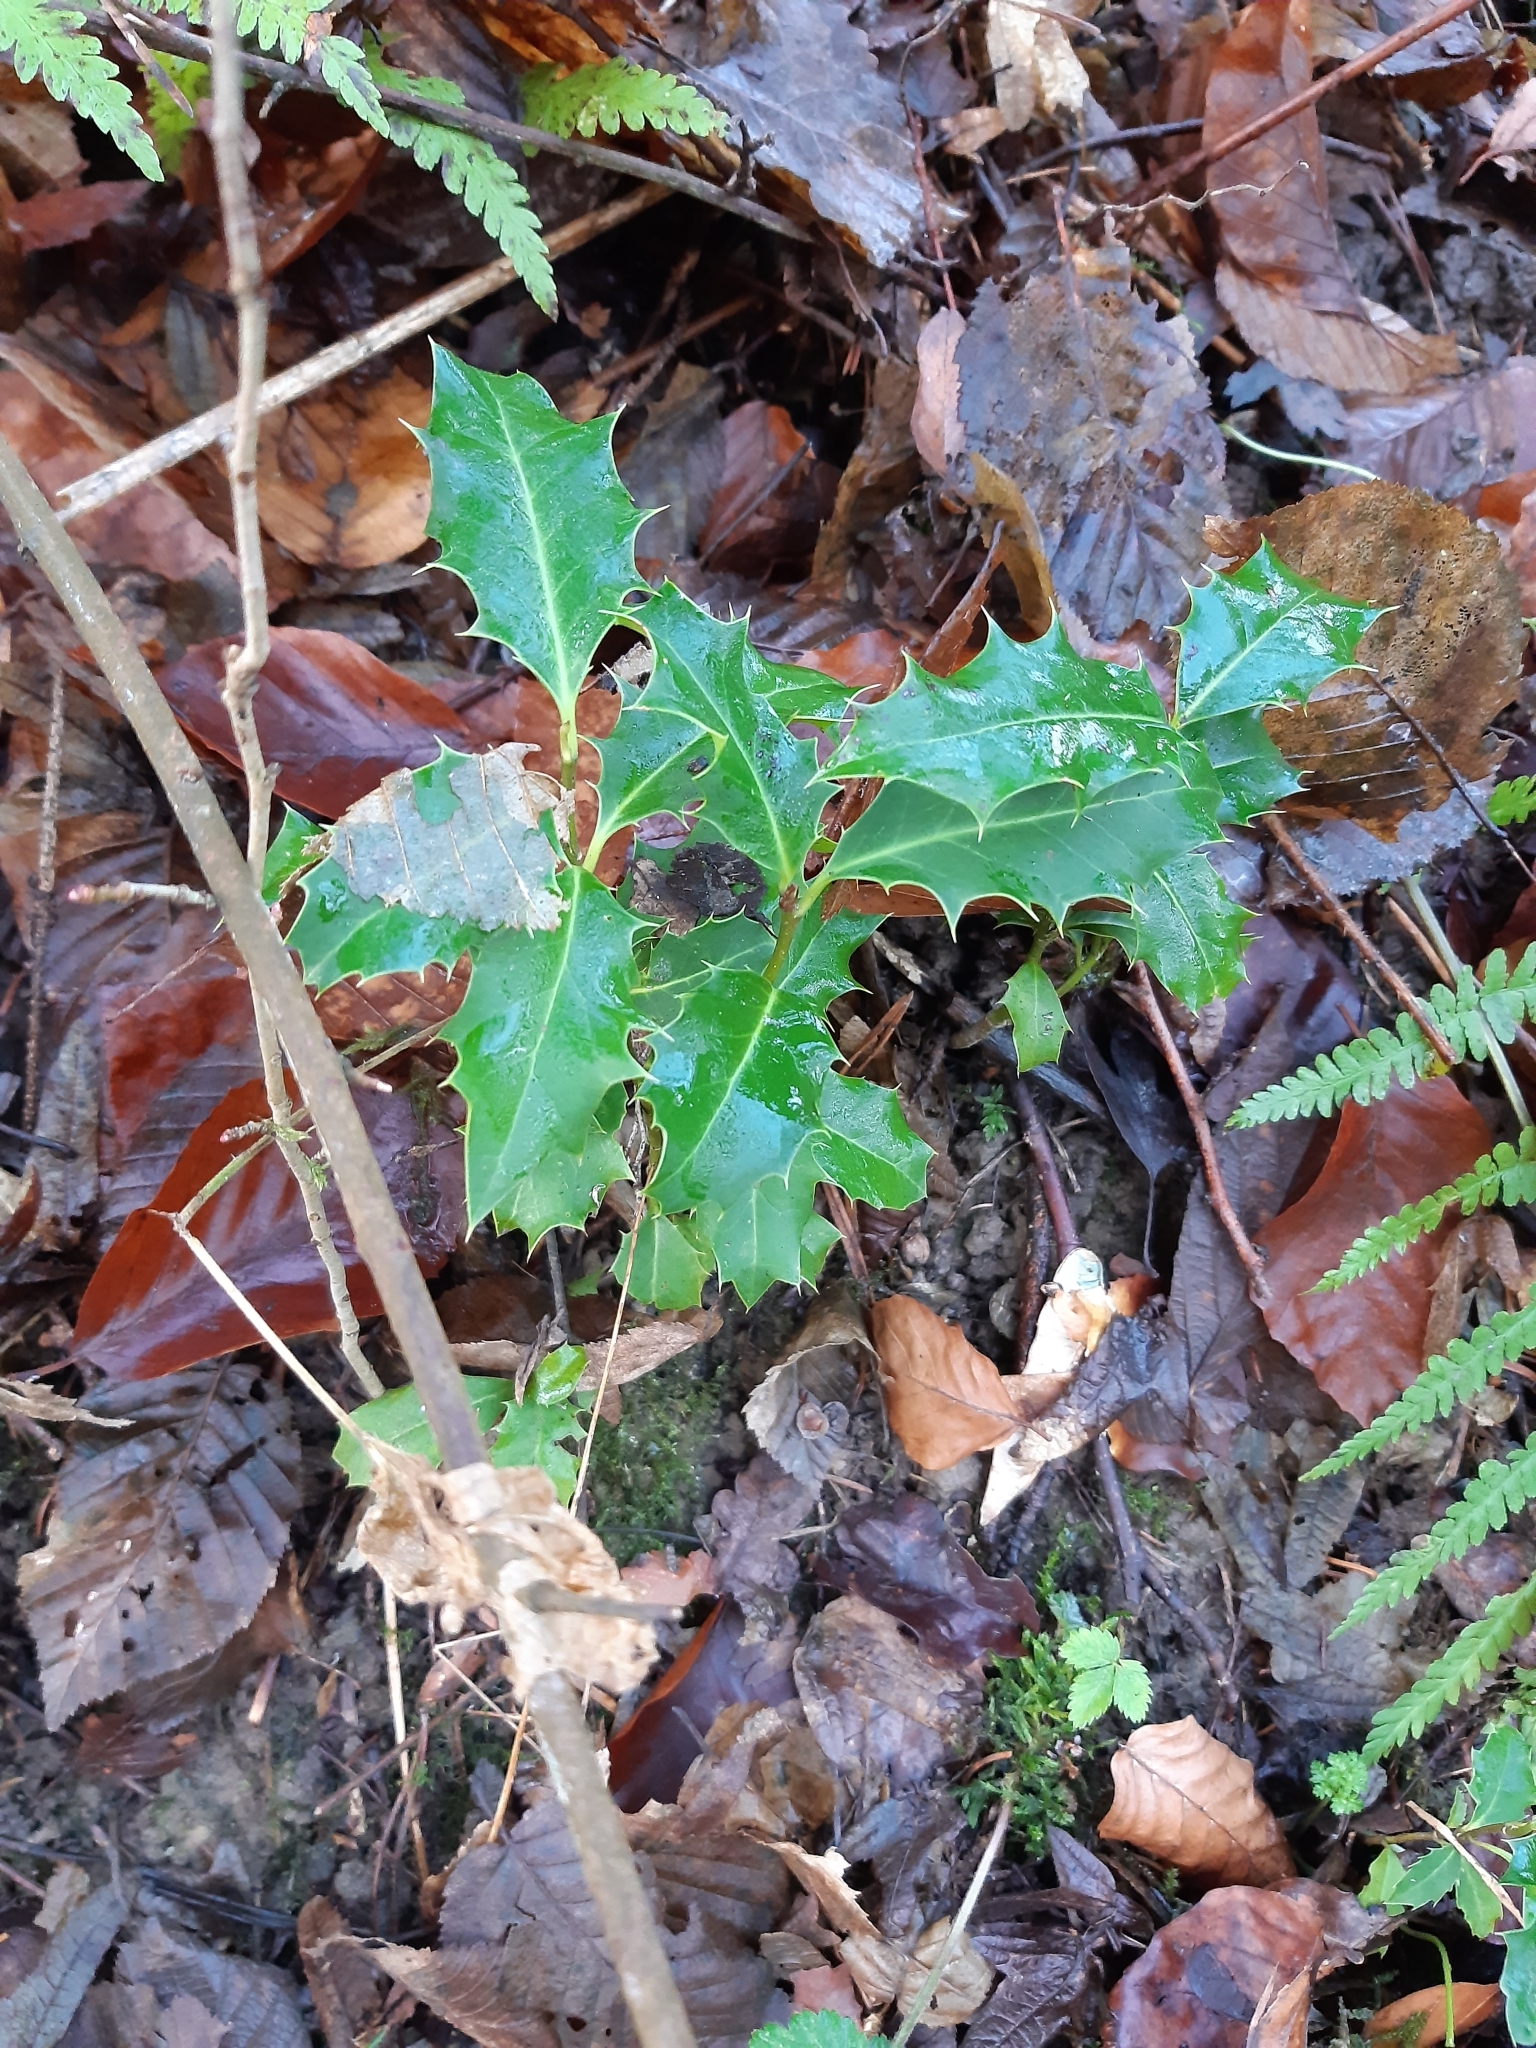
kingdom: Plantae
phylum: Tracheophyta
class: Magnoliopsida
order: Aquifoliales
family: Aquifoliaceae
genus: Ilex
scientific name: Ilex aquifolium
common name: English holly
